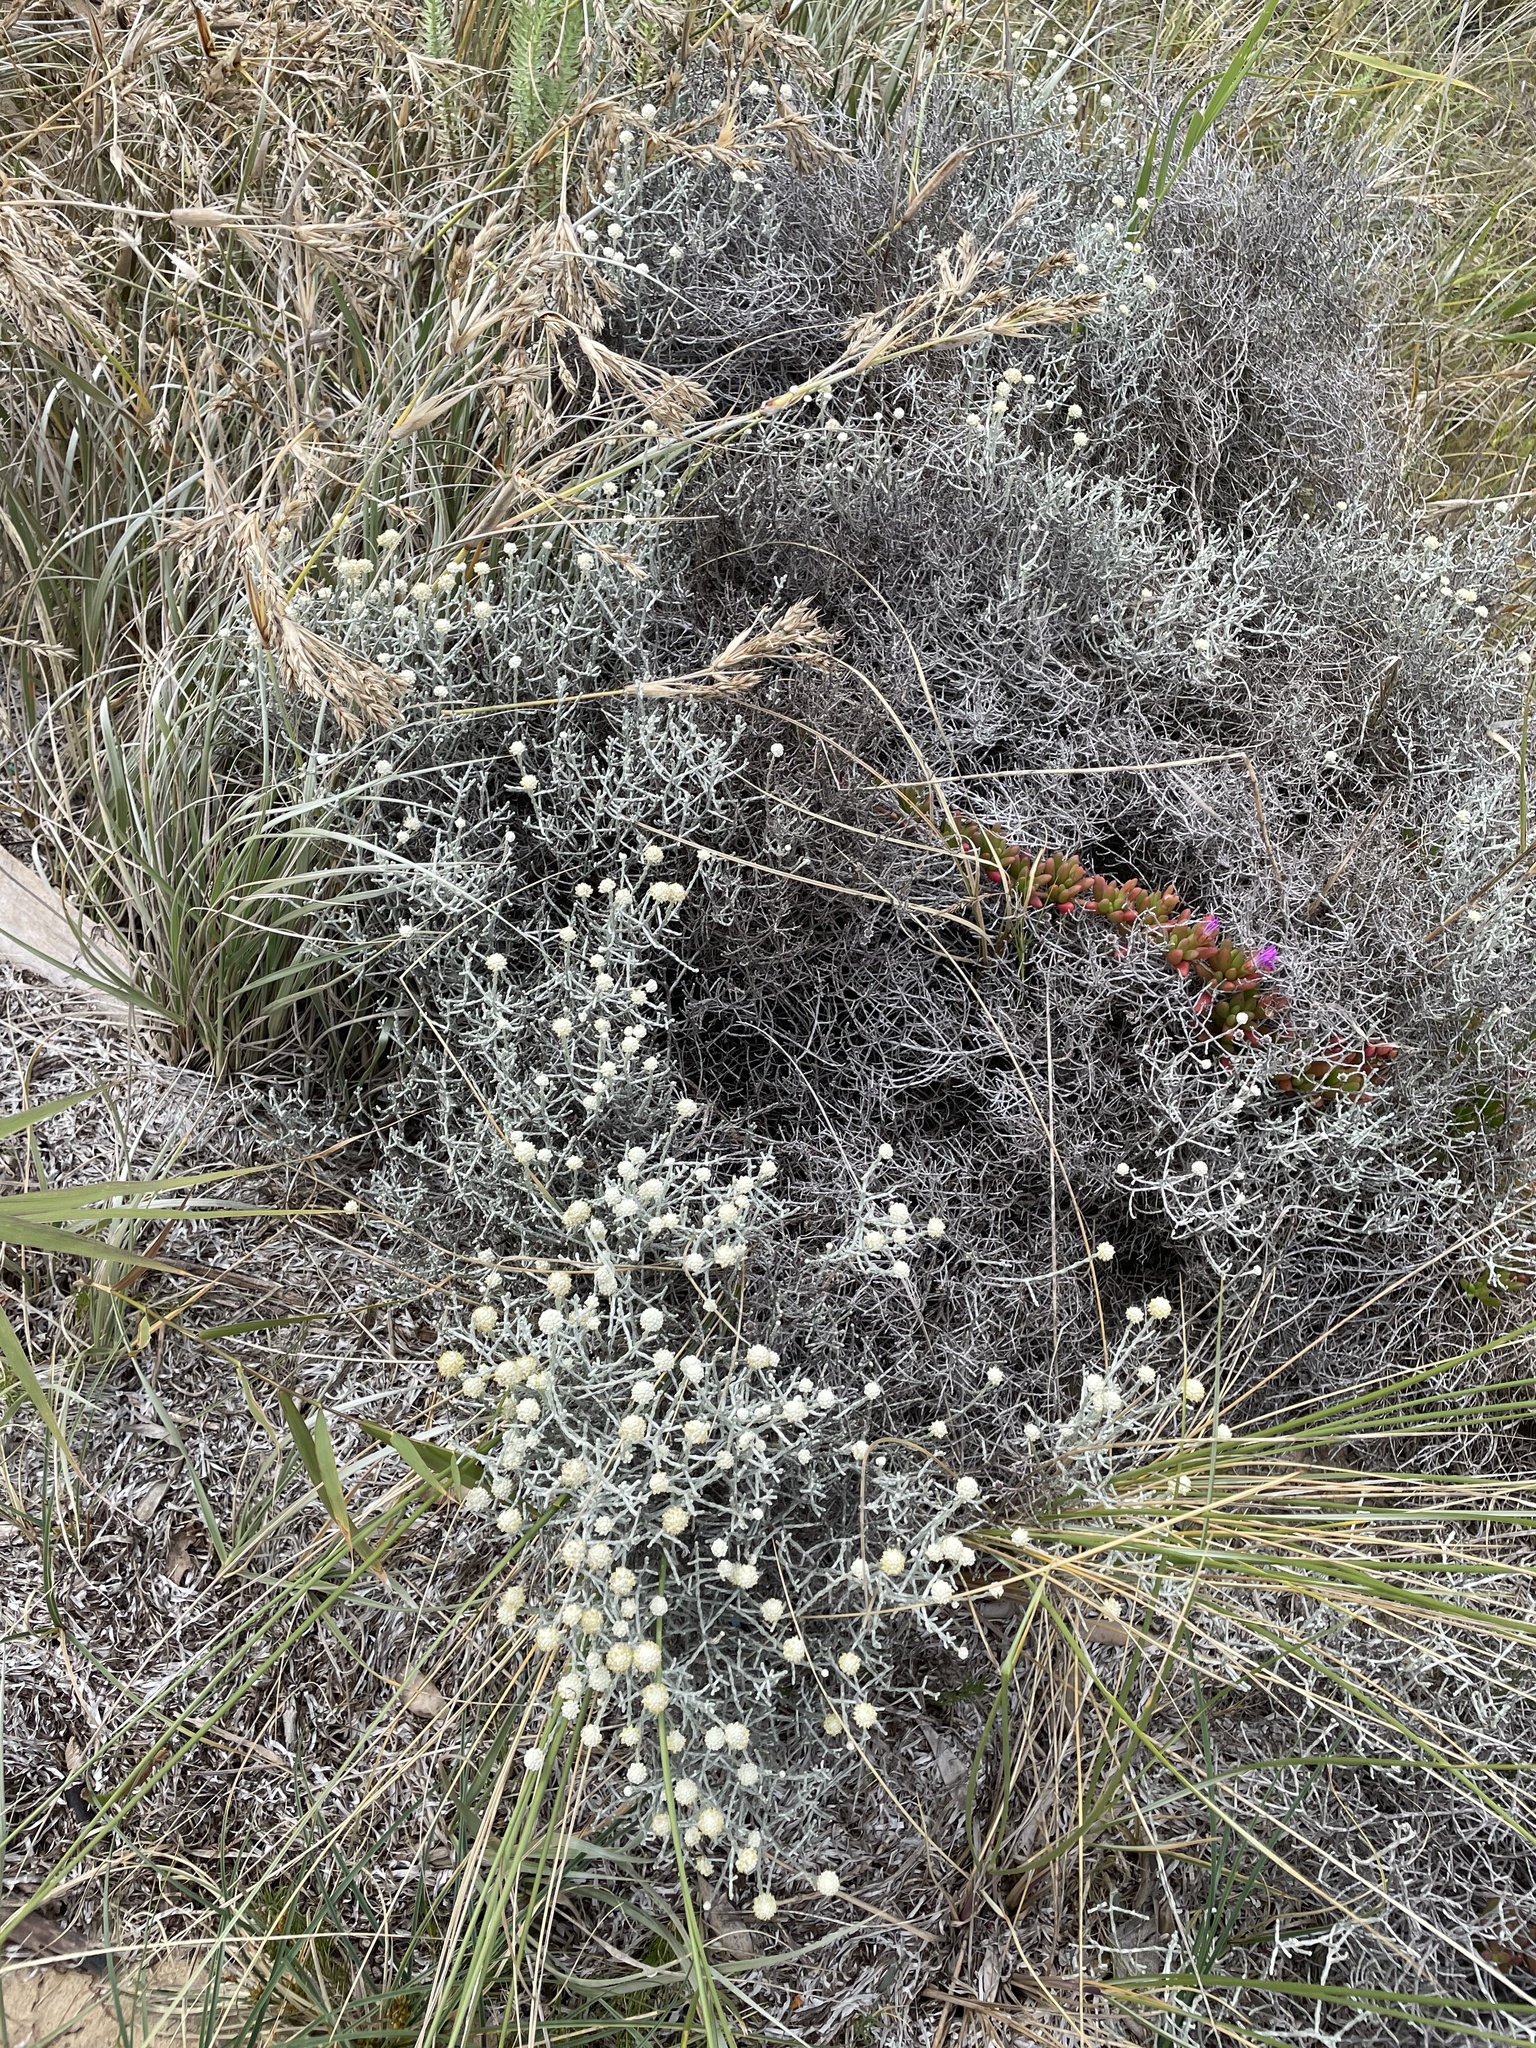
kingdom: Plantae
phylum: Tracheophyta
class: Magnoliopsida
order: Asterales
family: Asteraceae
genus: Calocephalus
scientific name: Calocephalus brownii
